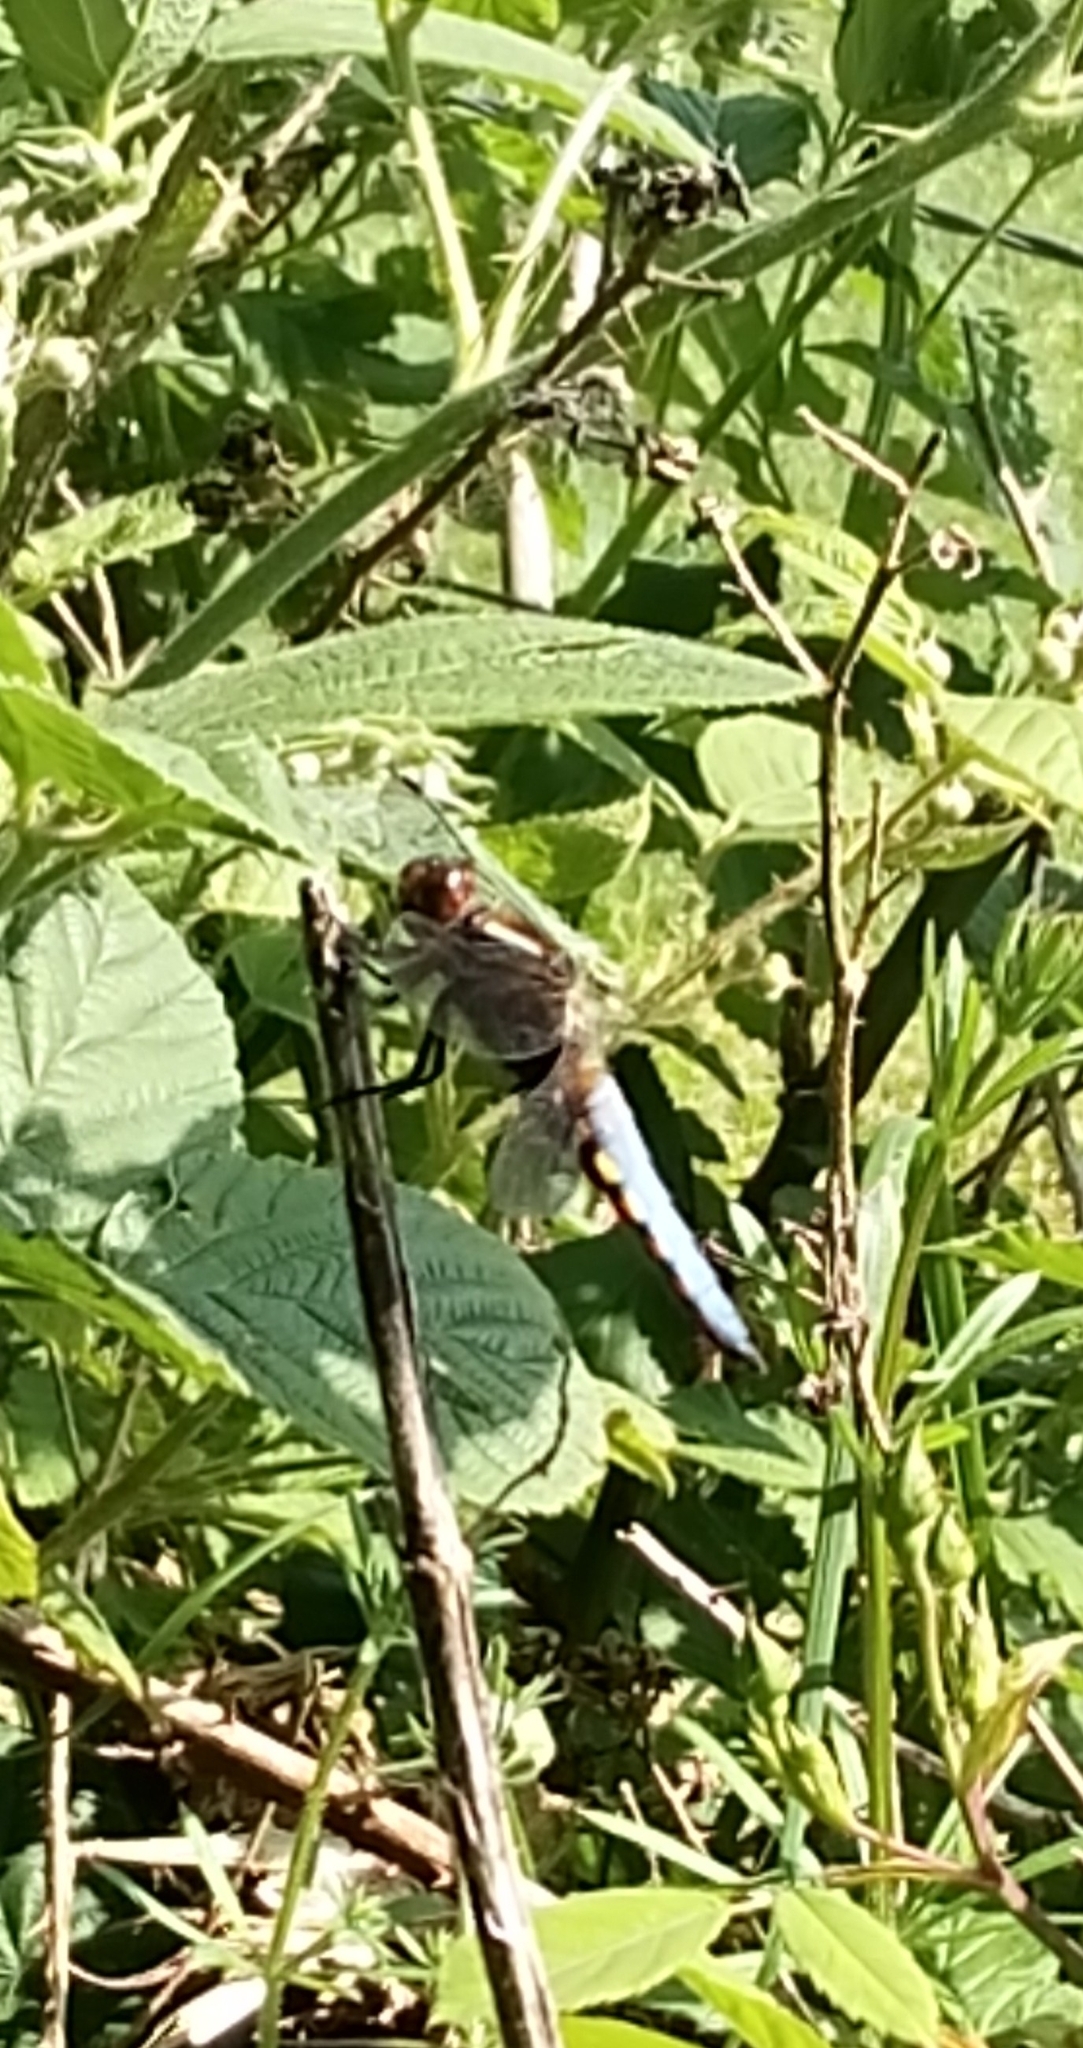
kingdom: Animalia
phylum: Arthropoda
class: Insecta
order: Odonata
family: Libellulidae
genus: Libellula
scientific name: Libellula depressa
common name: Broad-bodied chaser
